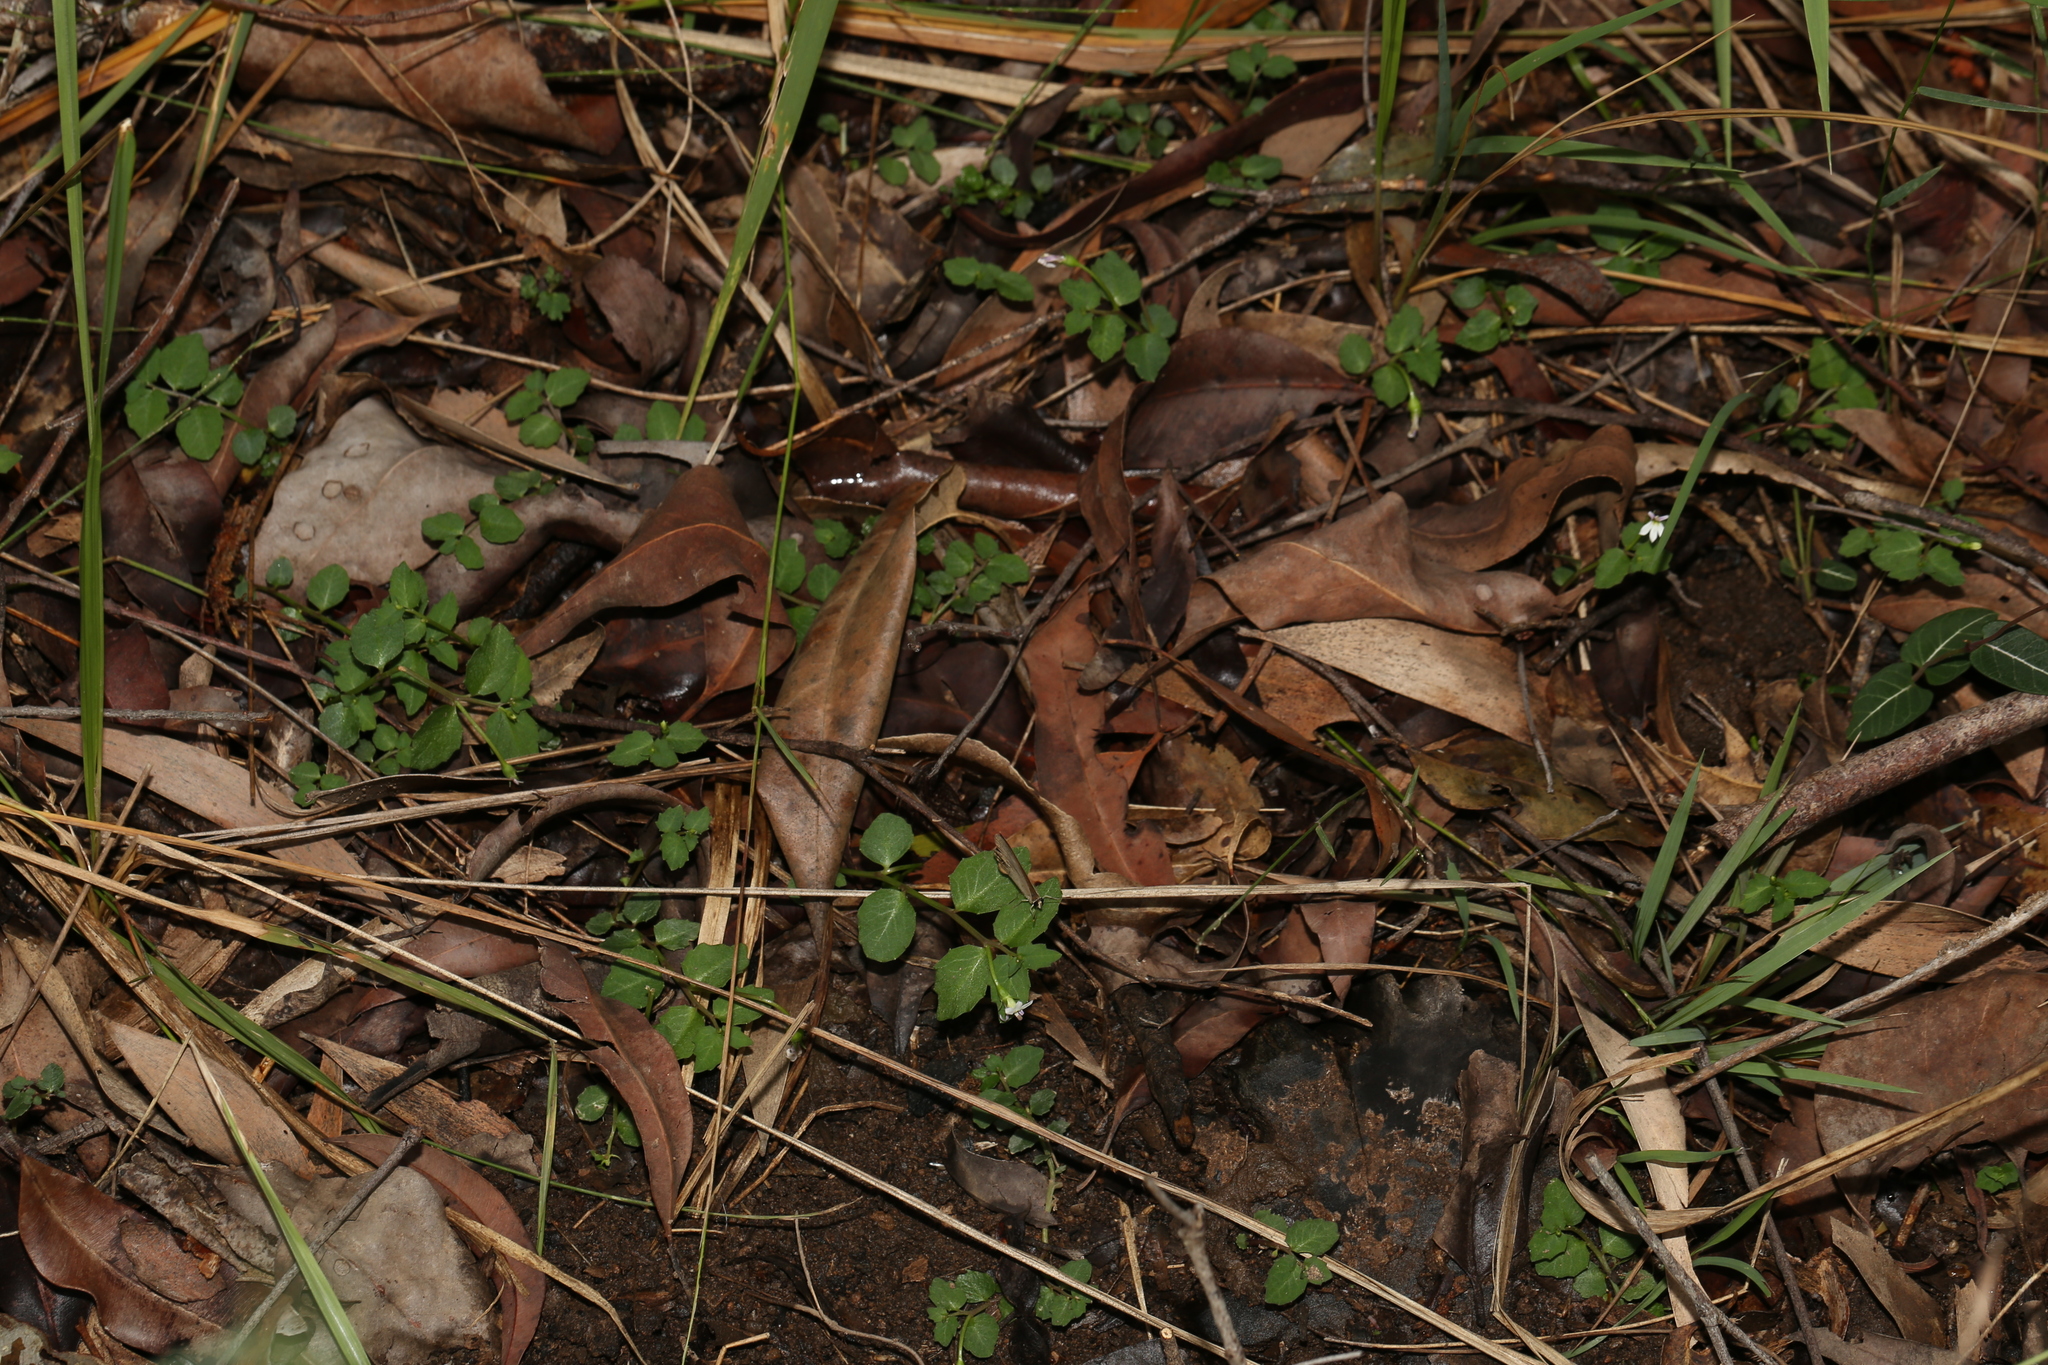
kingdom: Animalia
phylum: Arthropoda
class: Insecta
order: Lepidoptera
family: Nymphalidae
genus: Hypocysta
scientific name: Hypocysta pseudirius
